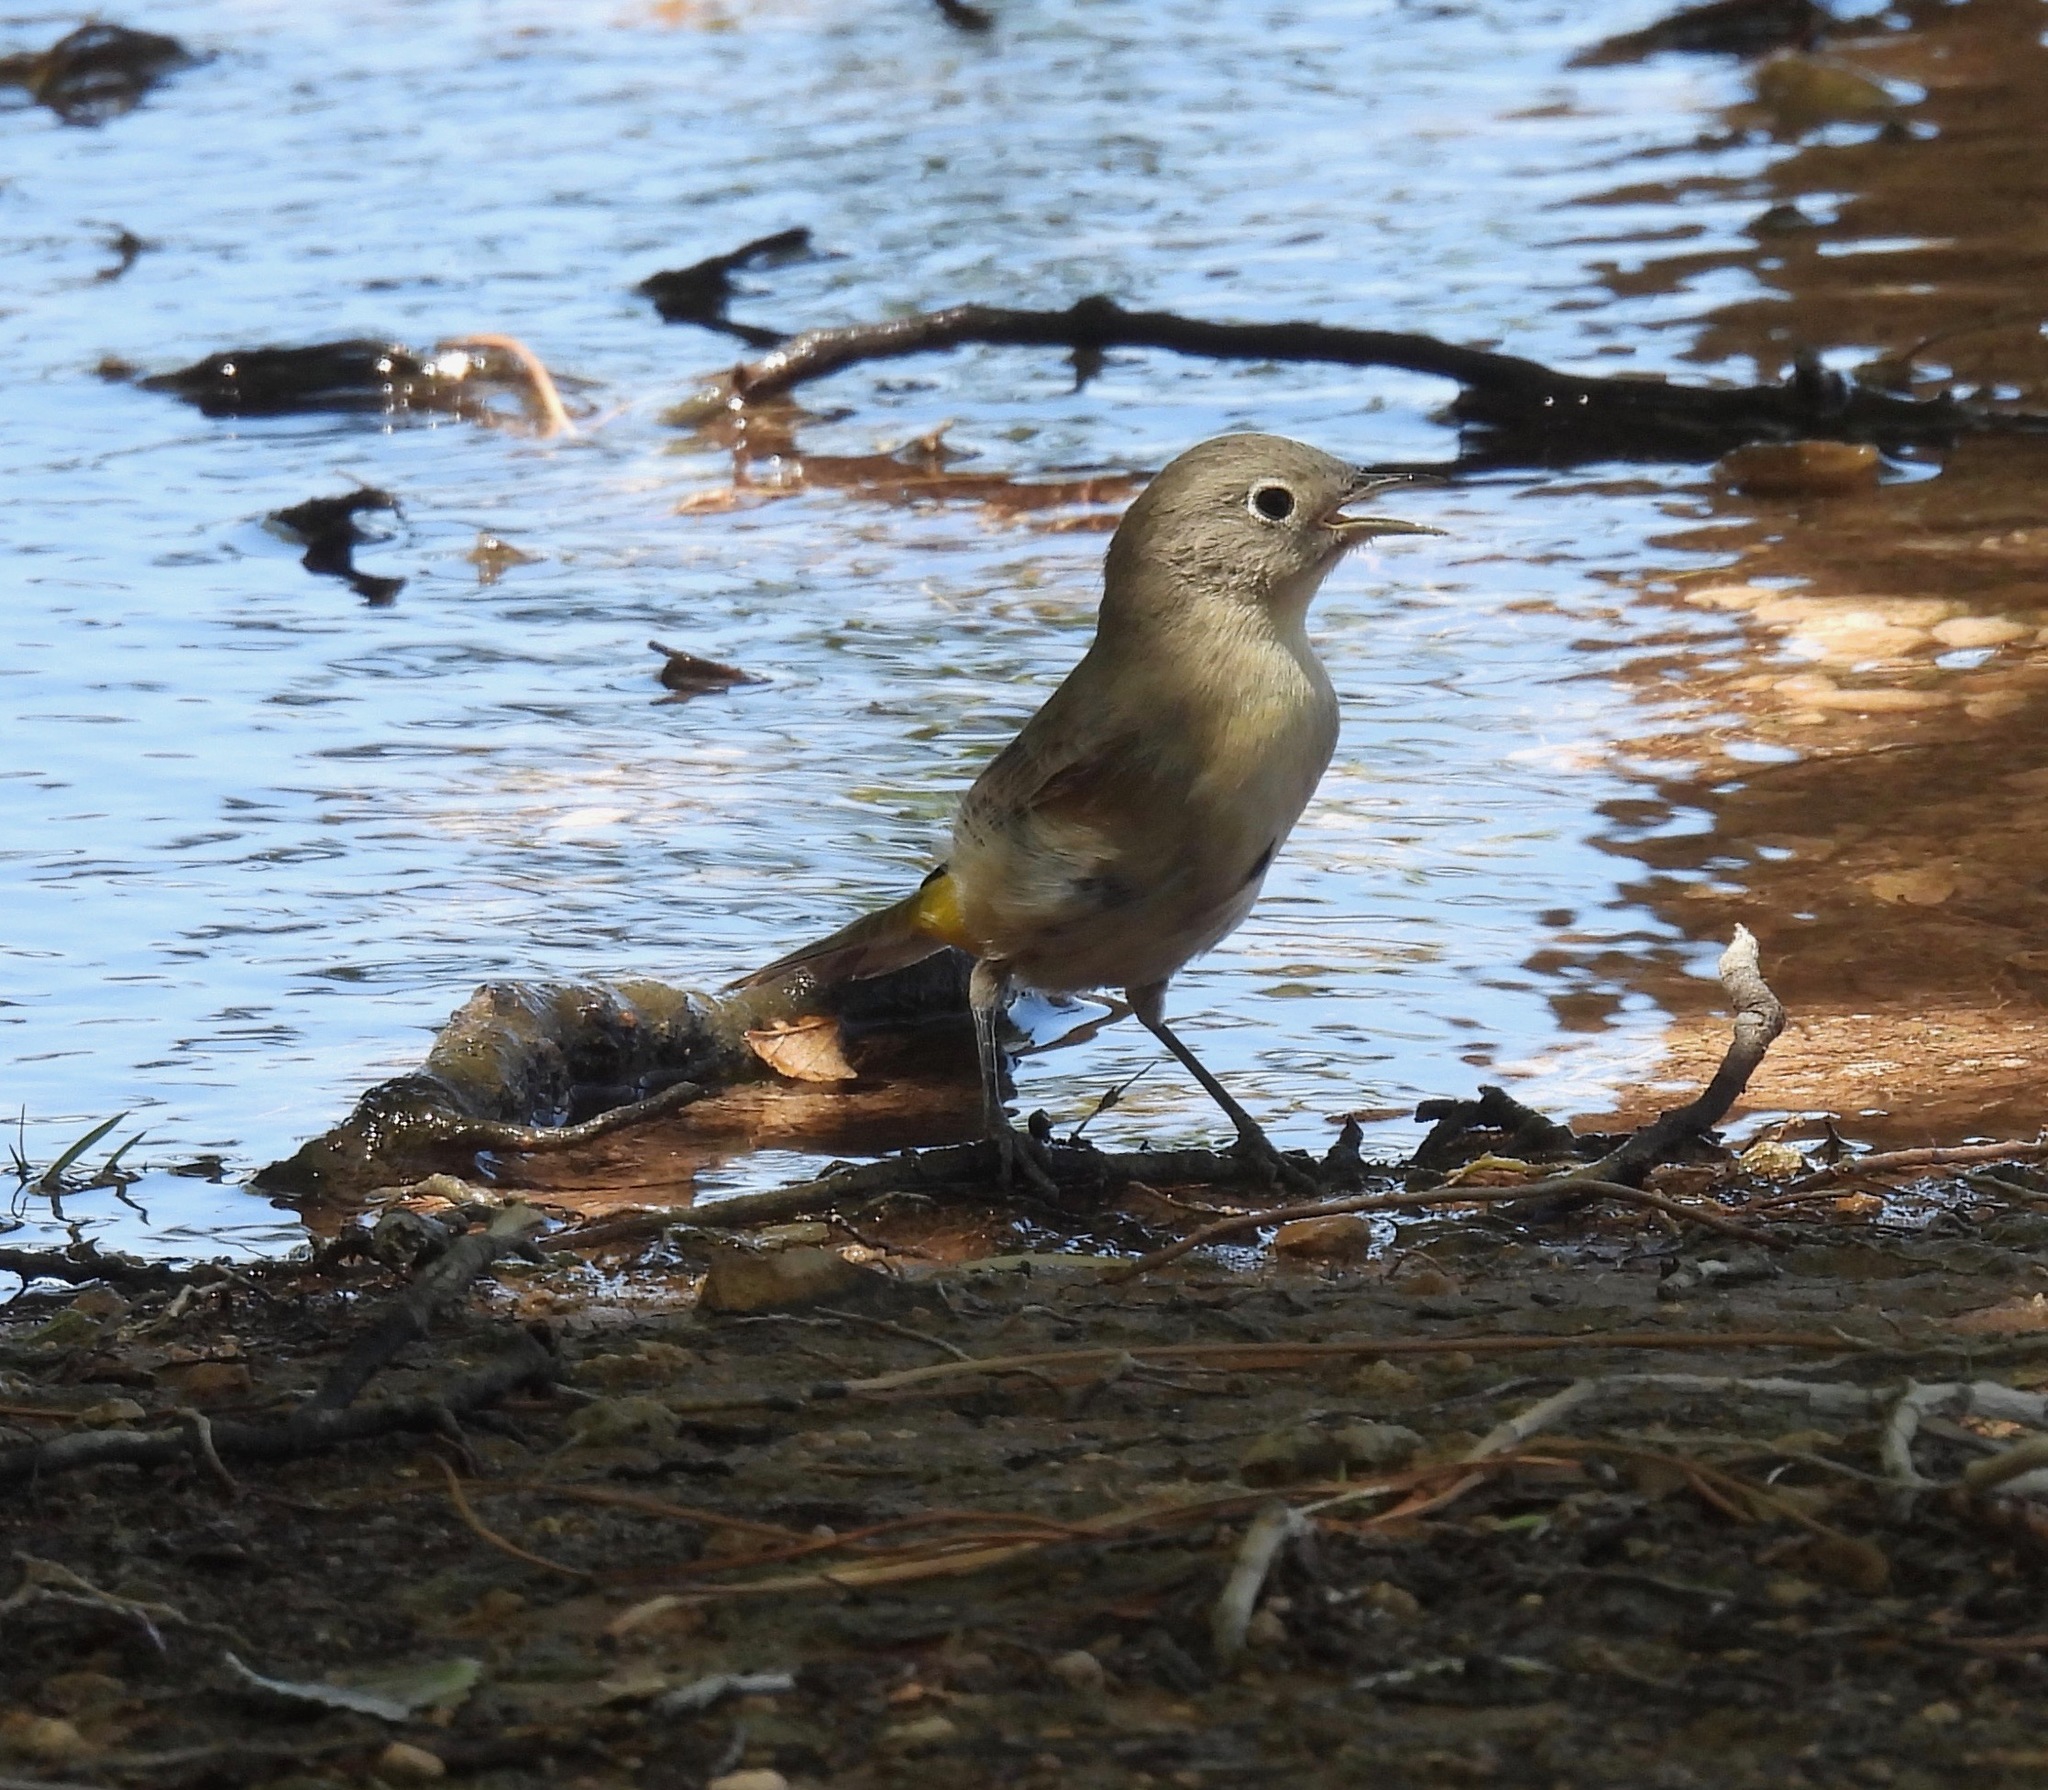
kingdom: Animalia
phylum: Chordata
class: Aves
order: Passeriformes
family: Parulidae
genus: Leiothlypis
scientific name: Leiothlypis virginiae
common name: Virginia's warbler
